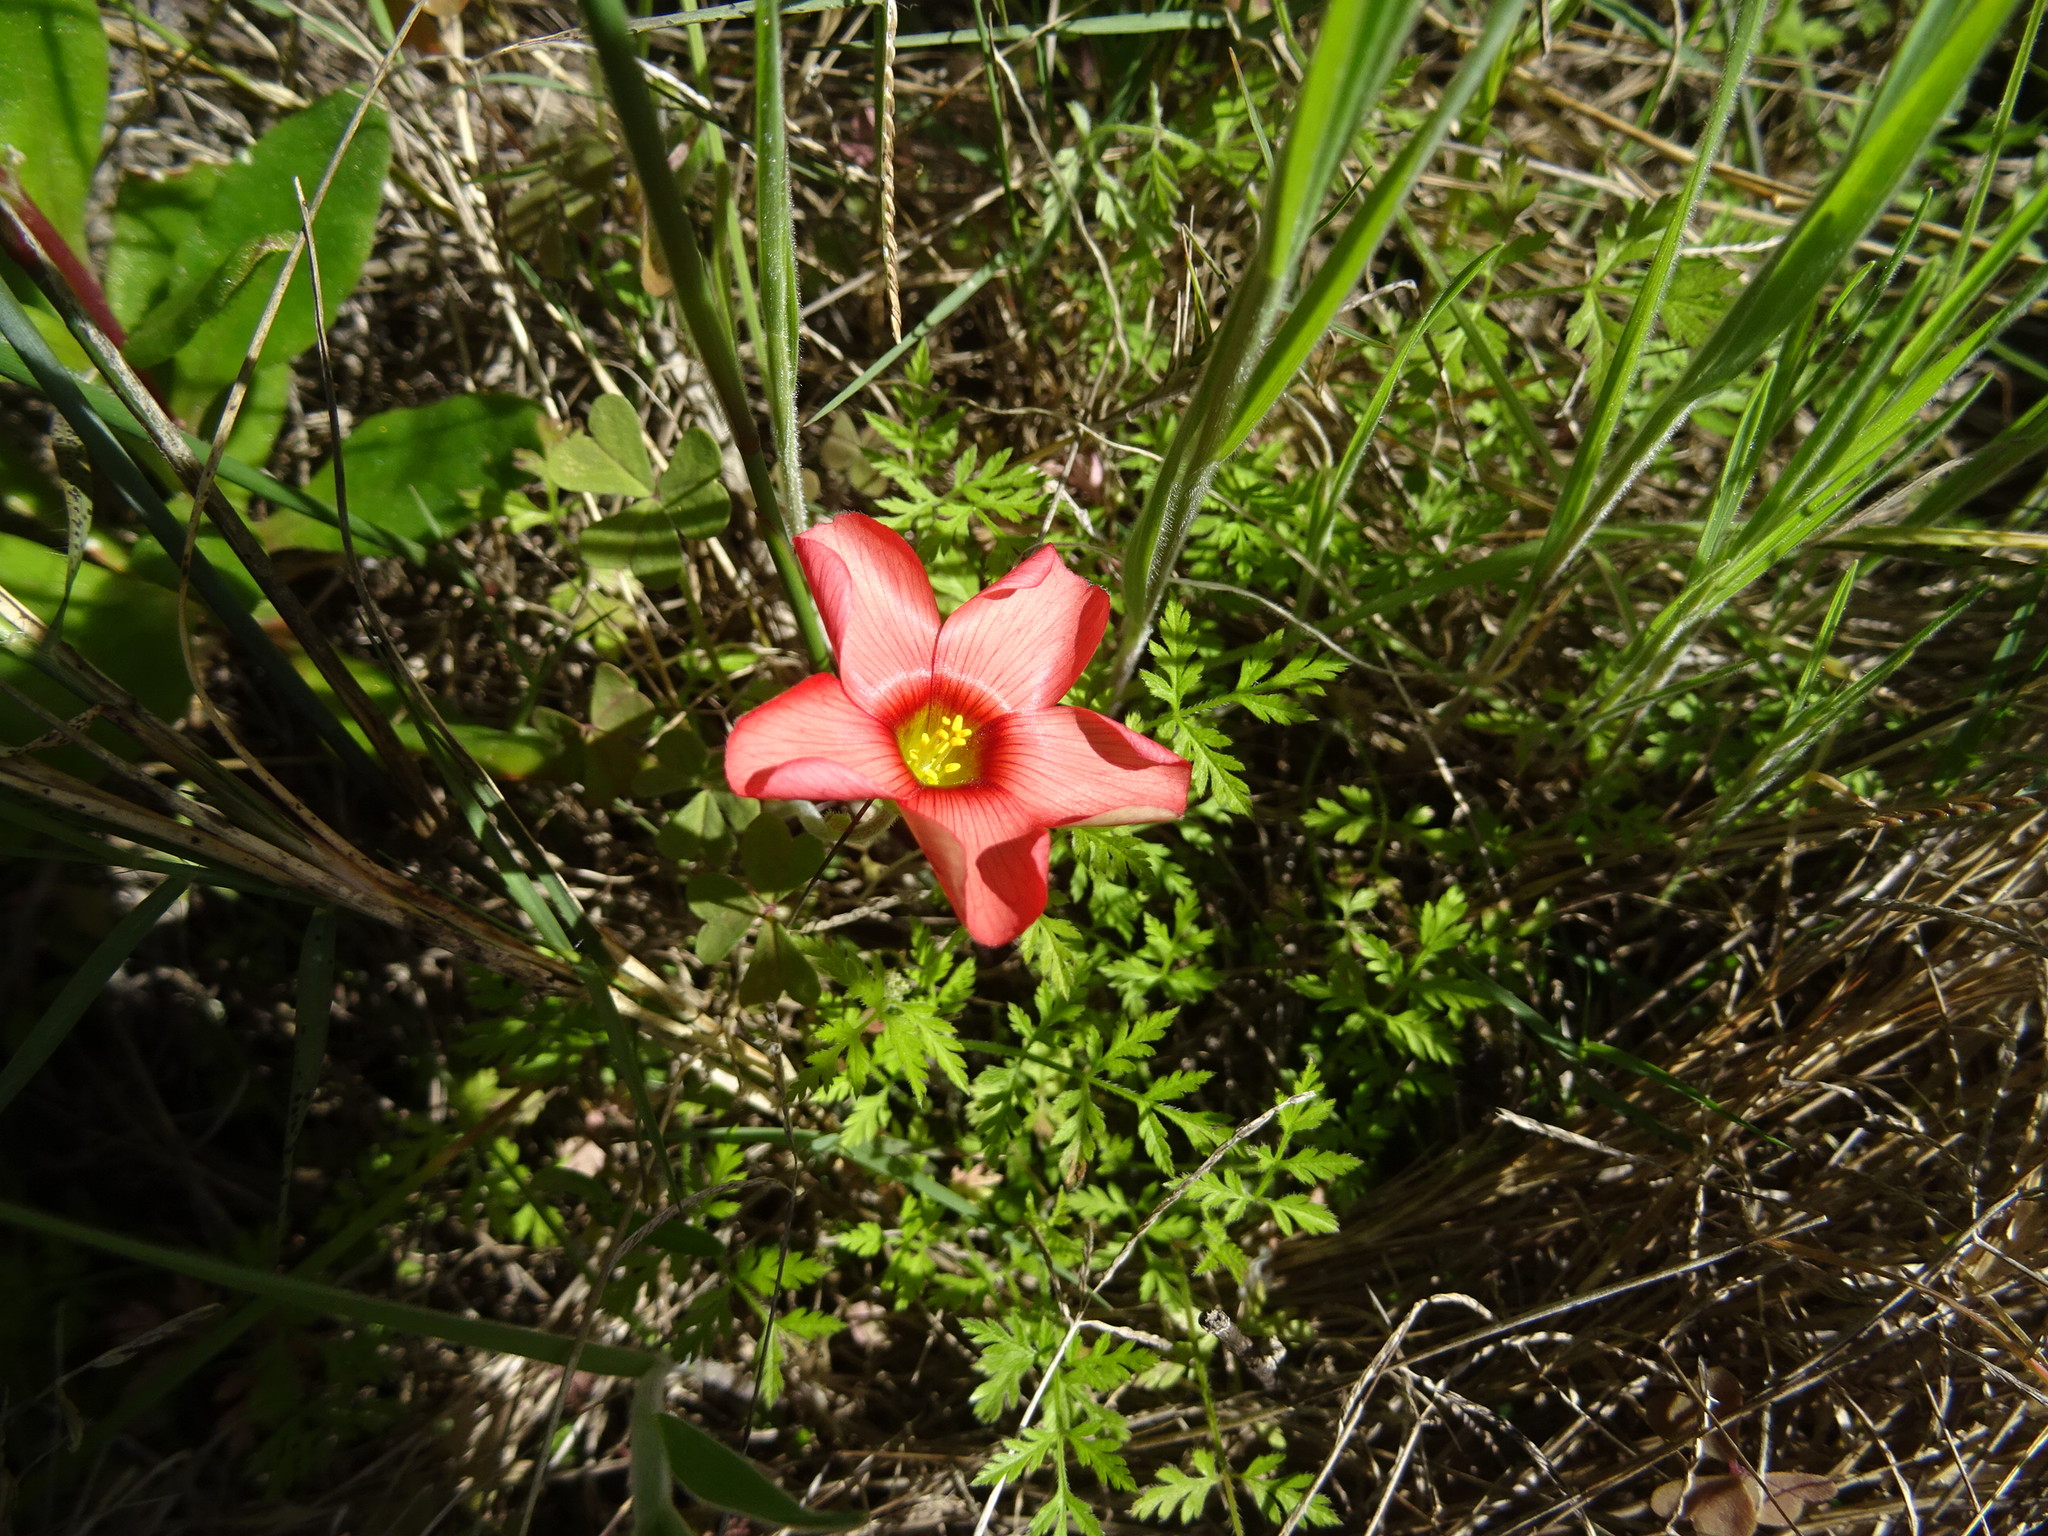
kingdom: Plantae
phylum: Tracheophyta
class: Magnoliopsida
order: Oxalidales
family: Oxalidaceae
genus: Oxalis
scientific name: Oxalis obtusa
